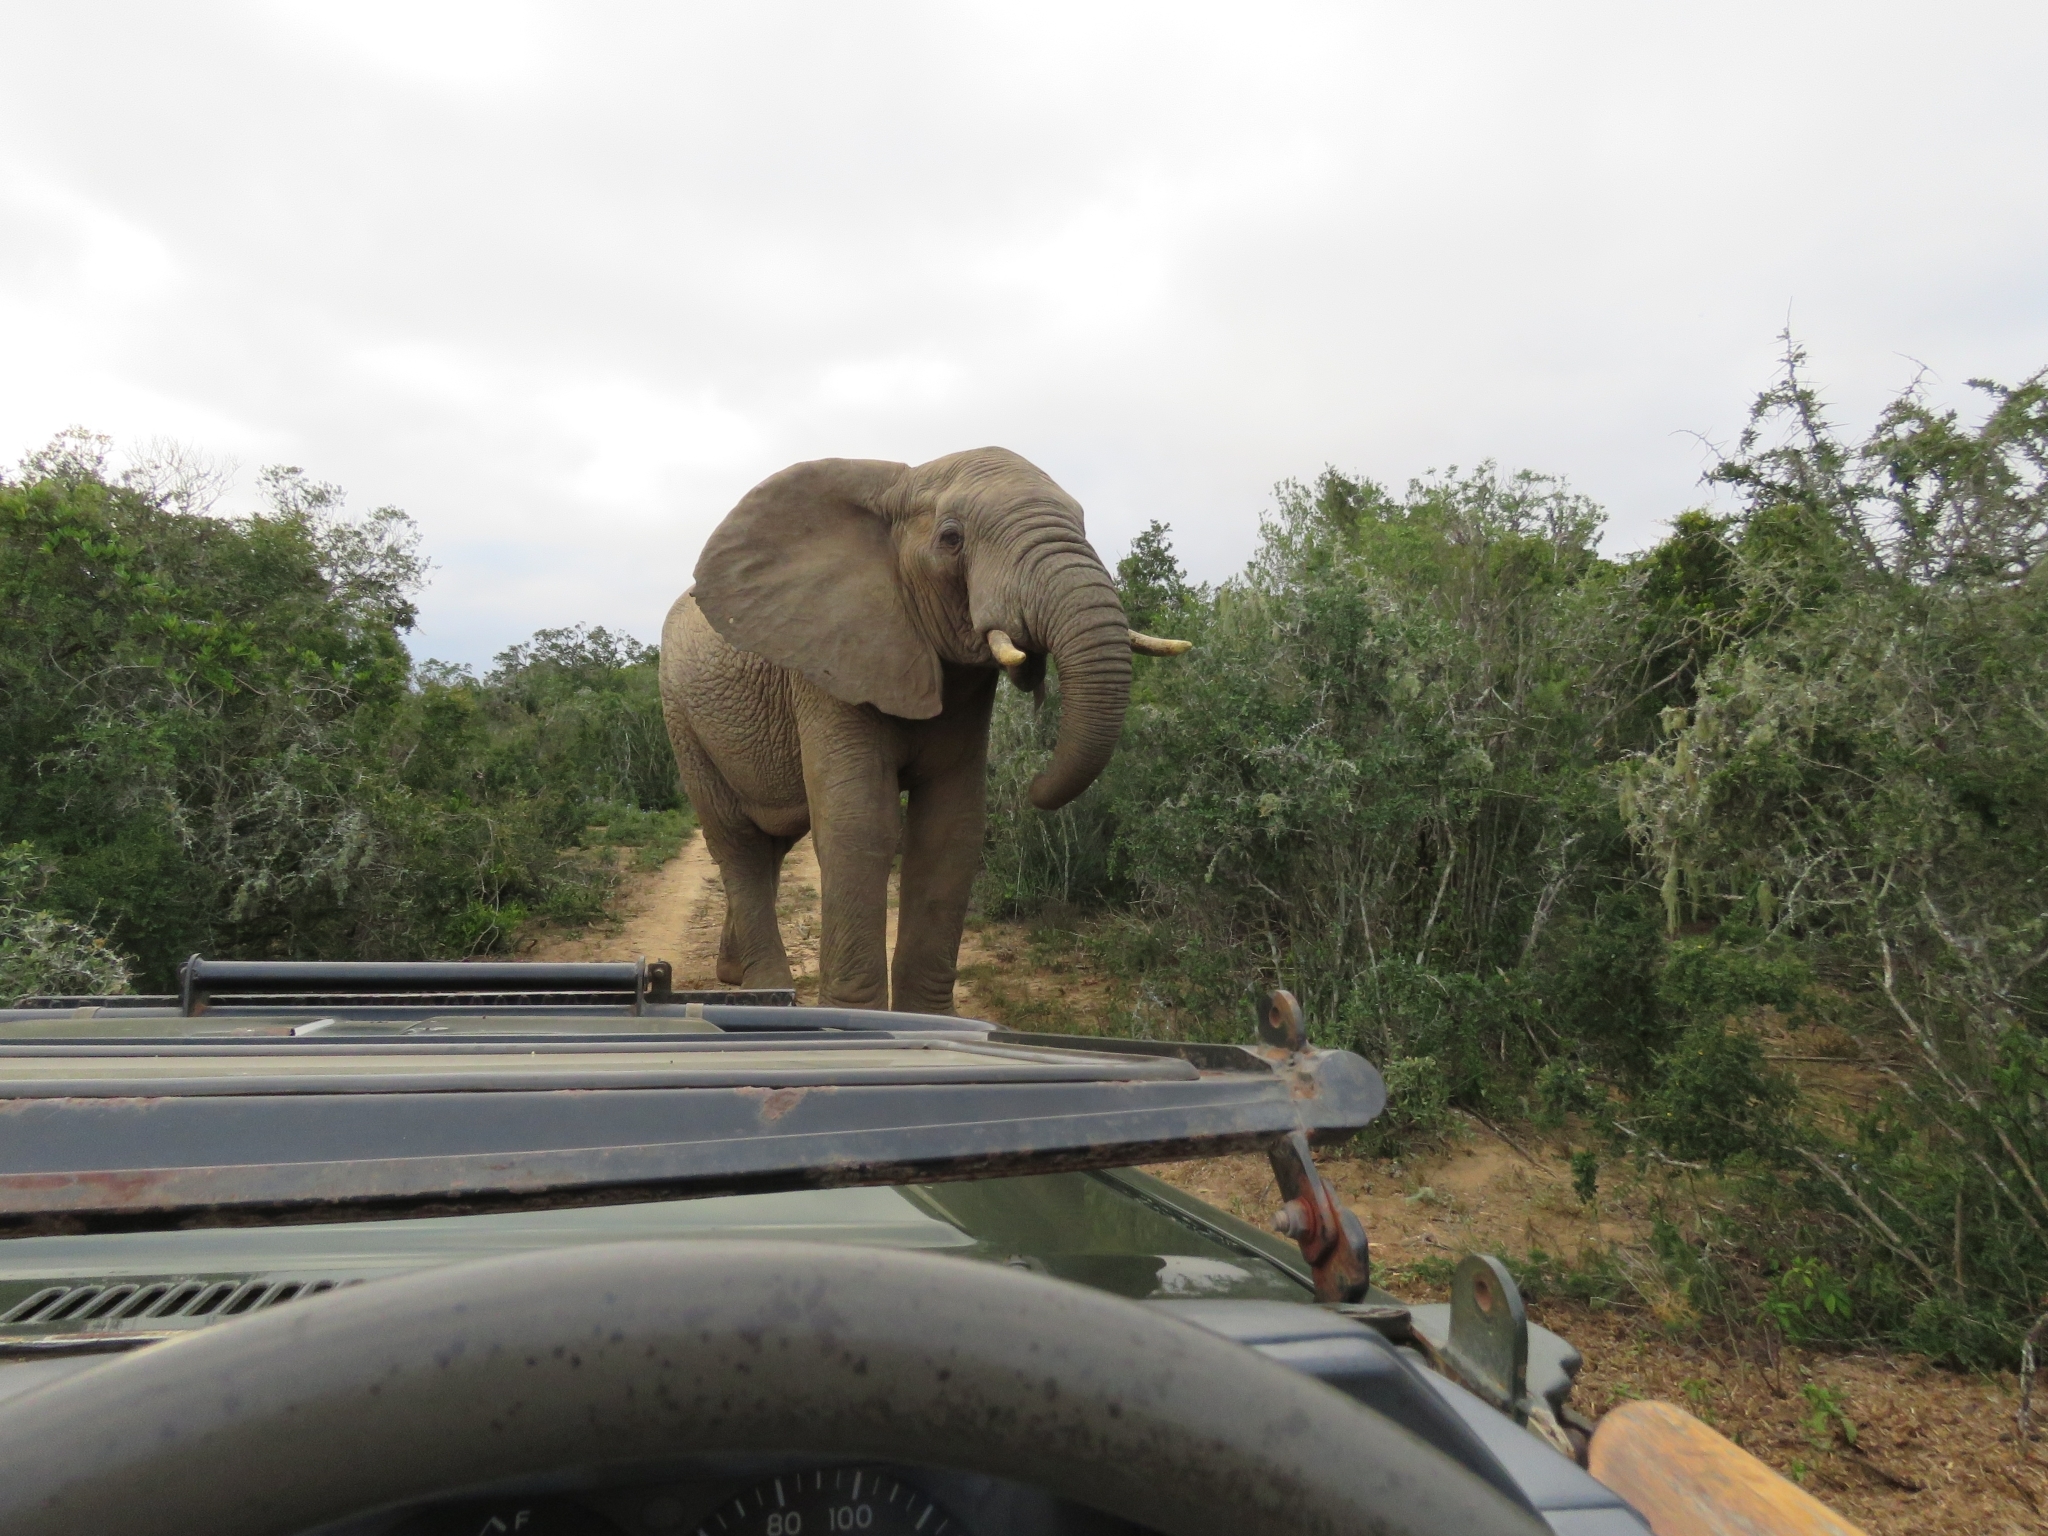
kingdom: Animalia
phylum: Chordata
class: Mammalia
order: Proboscidea
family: Elephantidae
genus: Loxodonta
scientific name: Loxodonta africana
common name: African elephant
